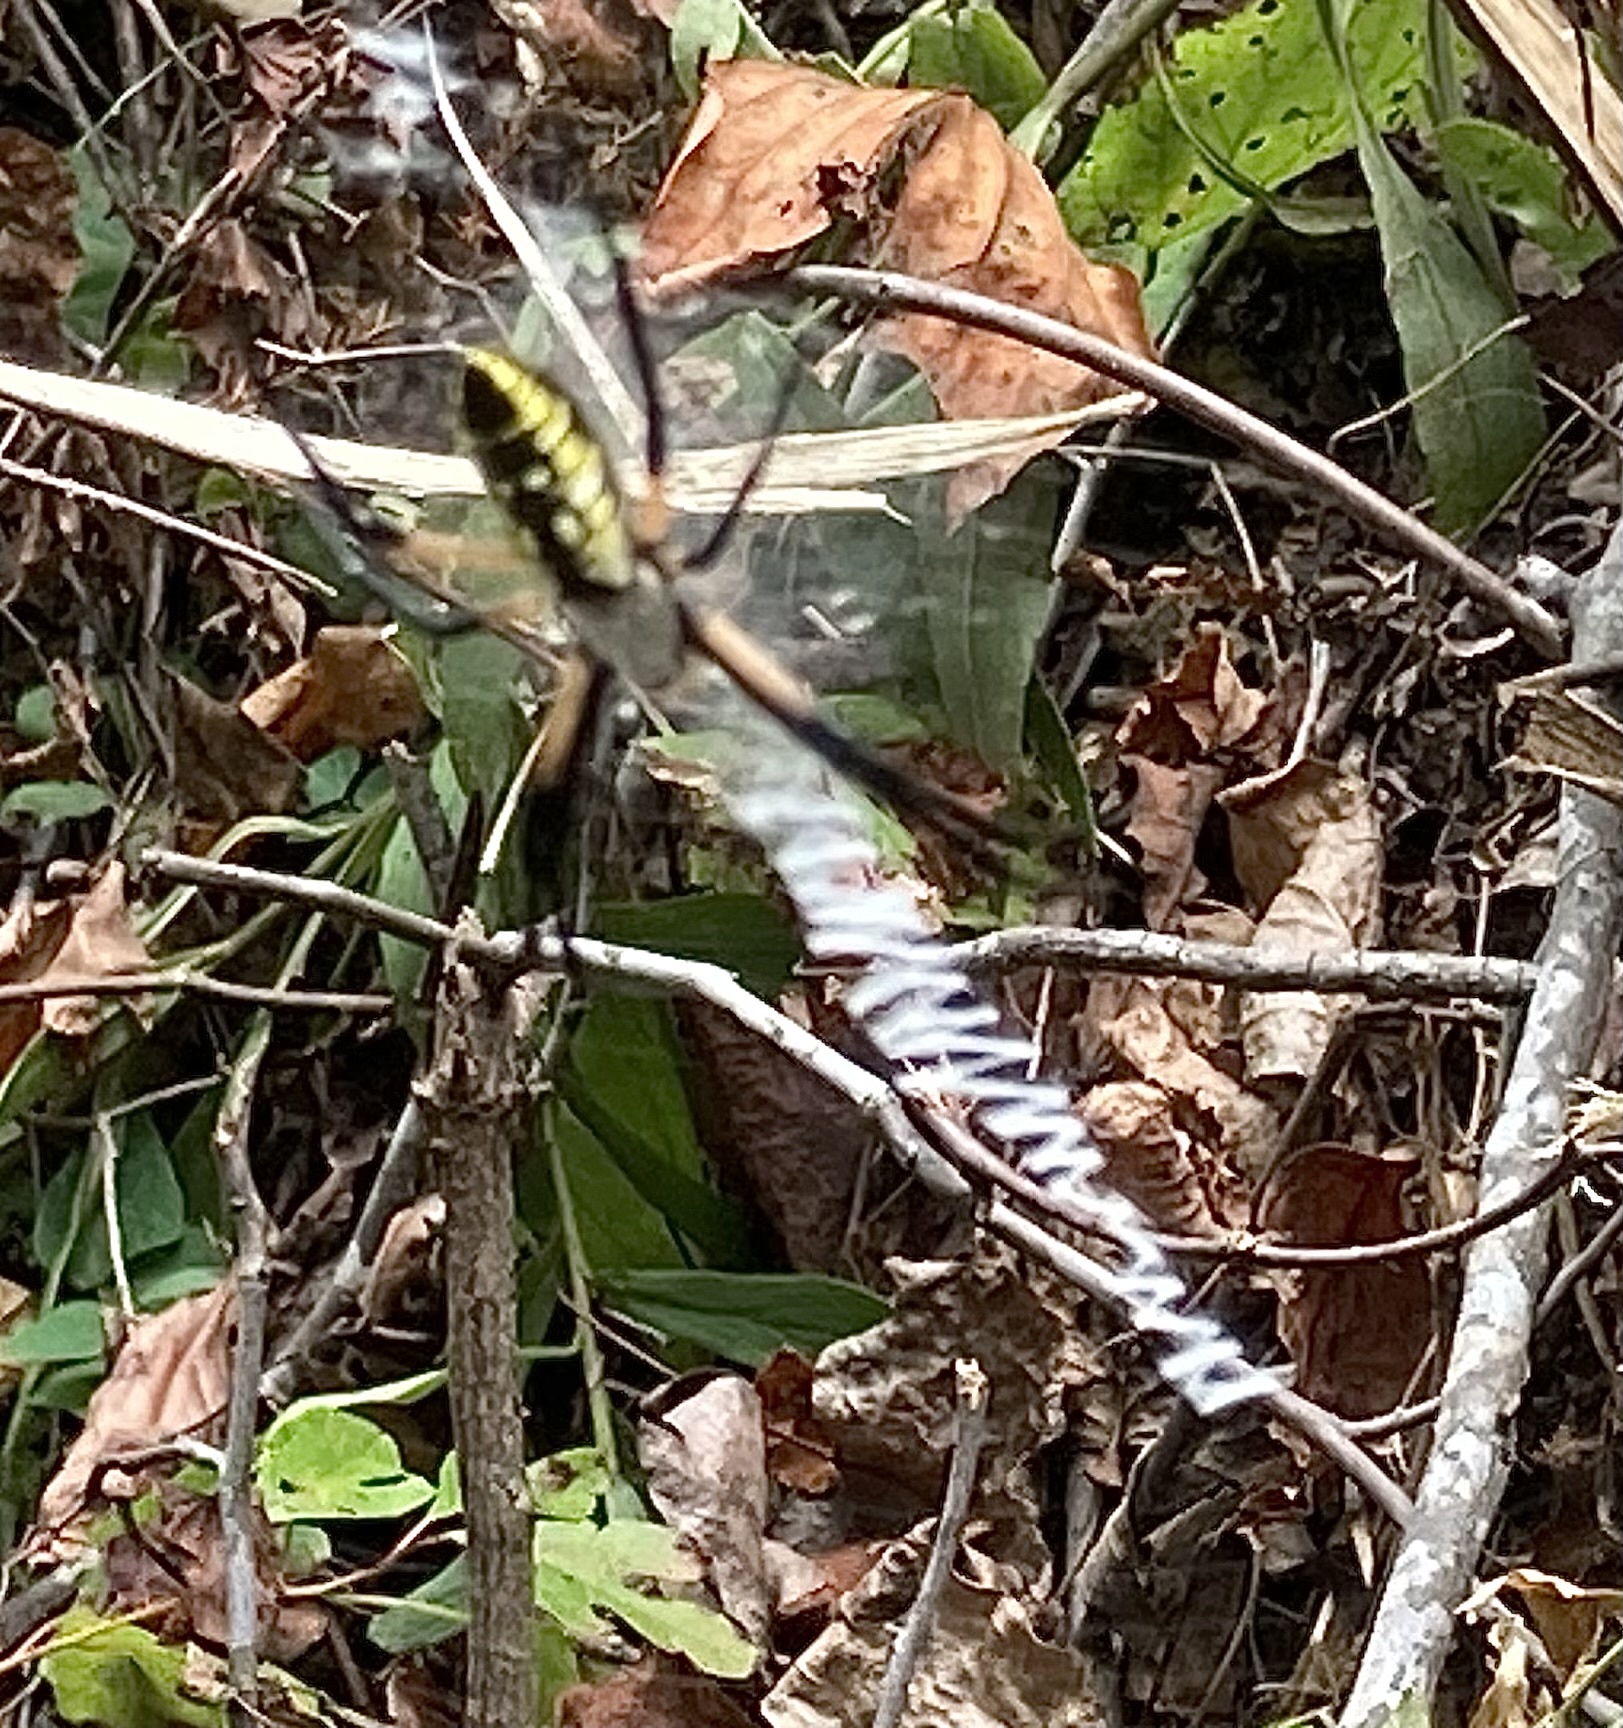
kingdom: Animalia
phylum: Arthropoda
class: Arachnida
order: Araneae
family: Araneidae
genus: Argiope
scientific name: Argiope aurantia
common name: Orb weavers
